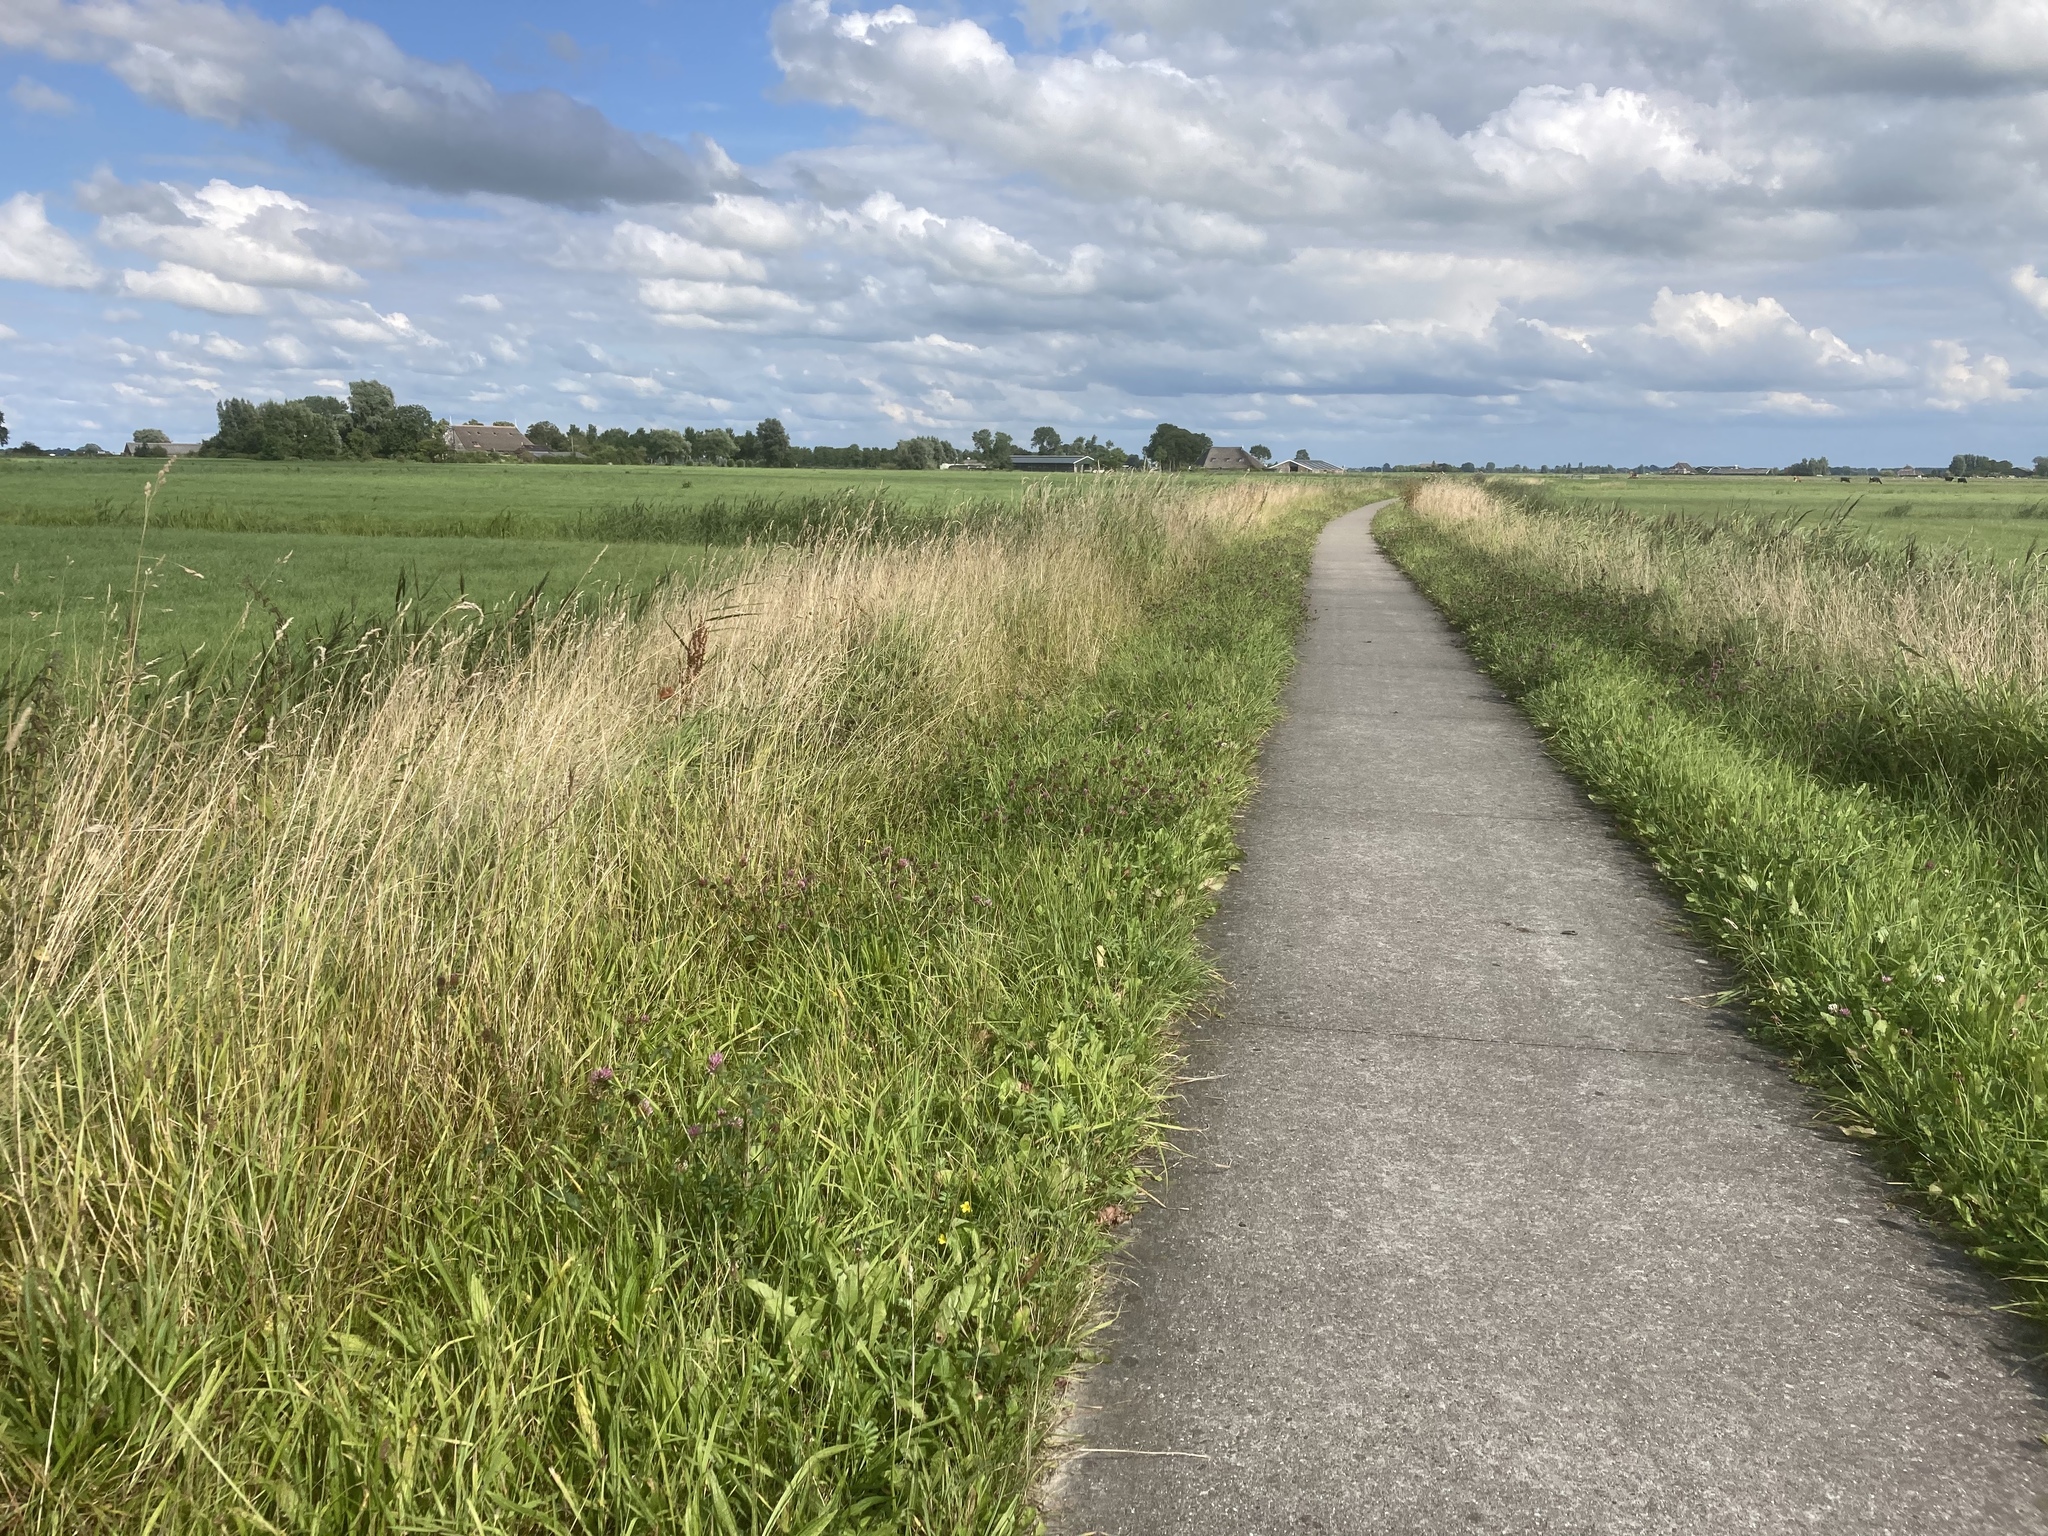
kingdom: Plantae
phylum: Tracheophyta
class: Magnoliopsida
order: Fabales
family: Fabaceae
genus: Trifolium
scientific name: Trifolium pratense
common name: Red clover
